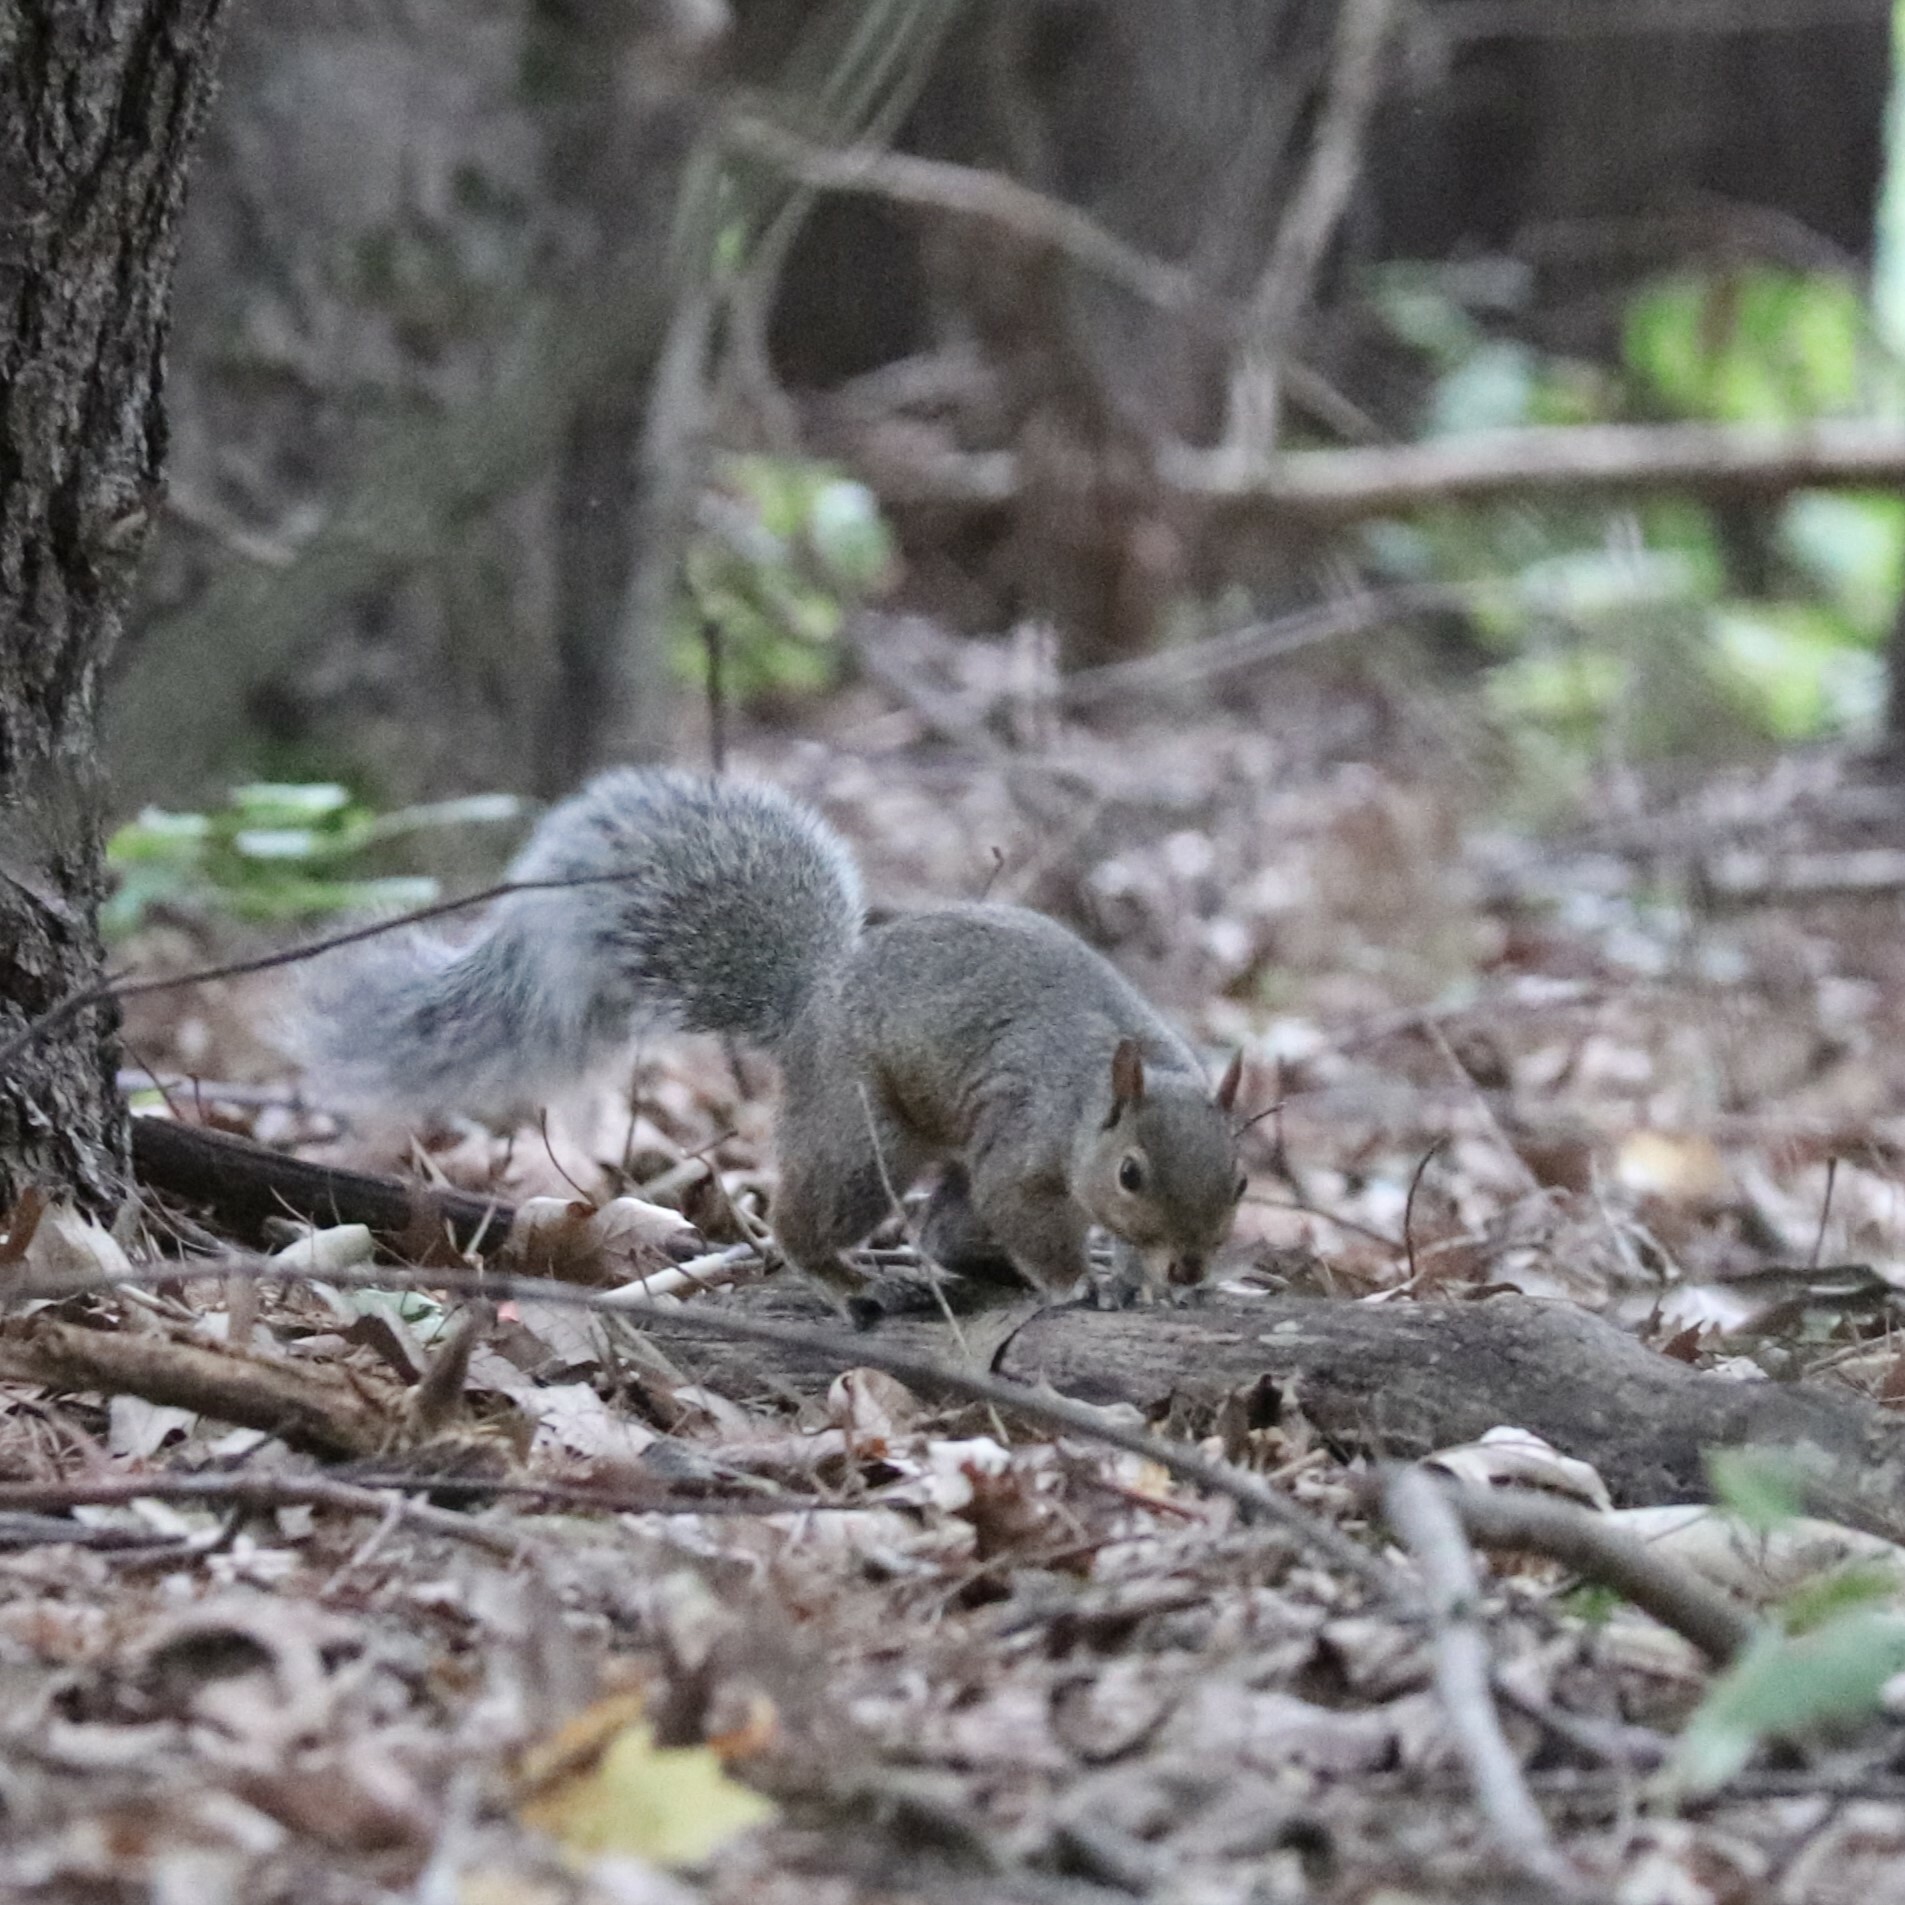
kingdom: Animalia
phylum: Chordata
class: Mammalia
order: Rodentia
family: Sciuridae
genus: Sciurus
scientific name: Sciurus carolinensis
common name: Eastern gray squirrel
